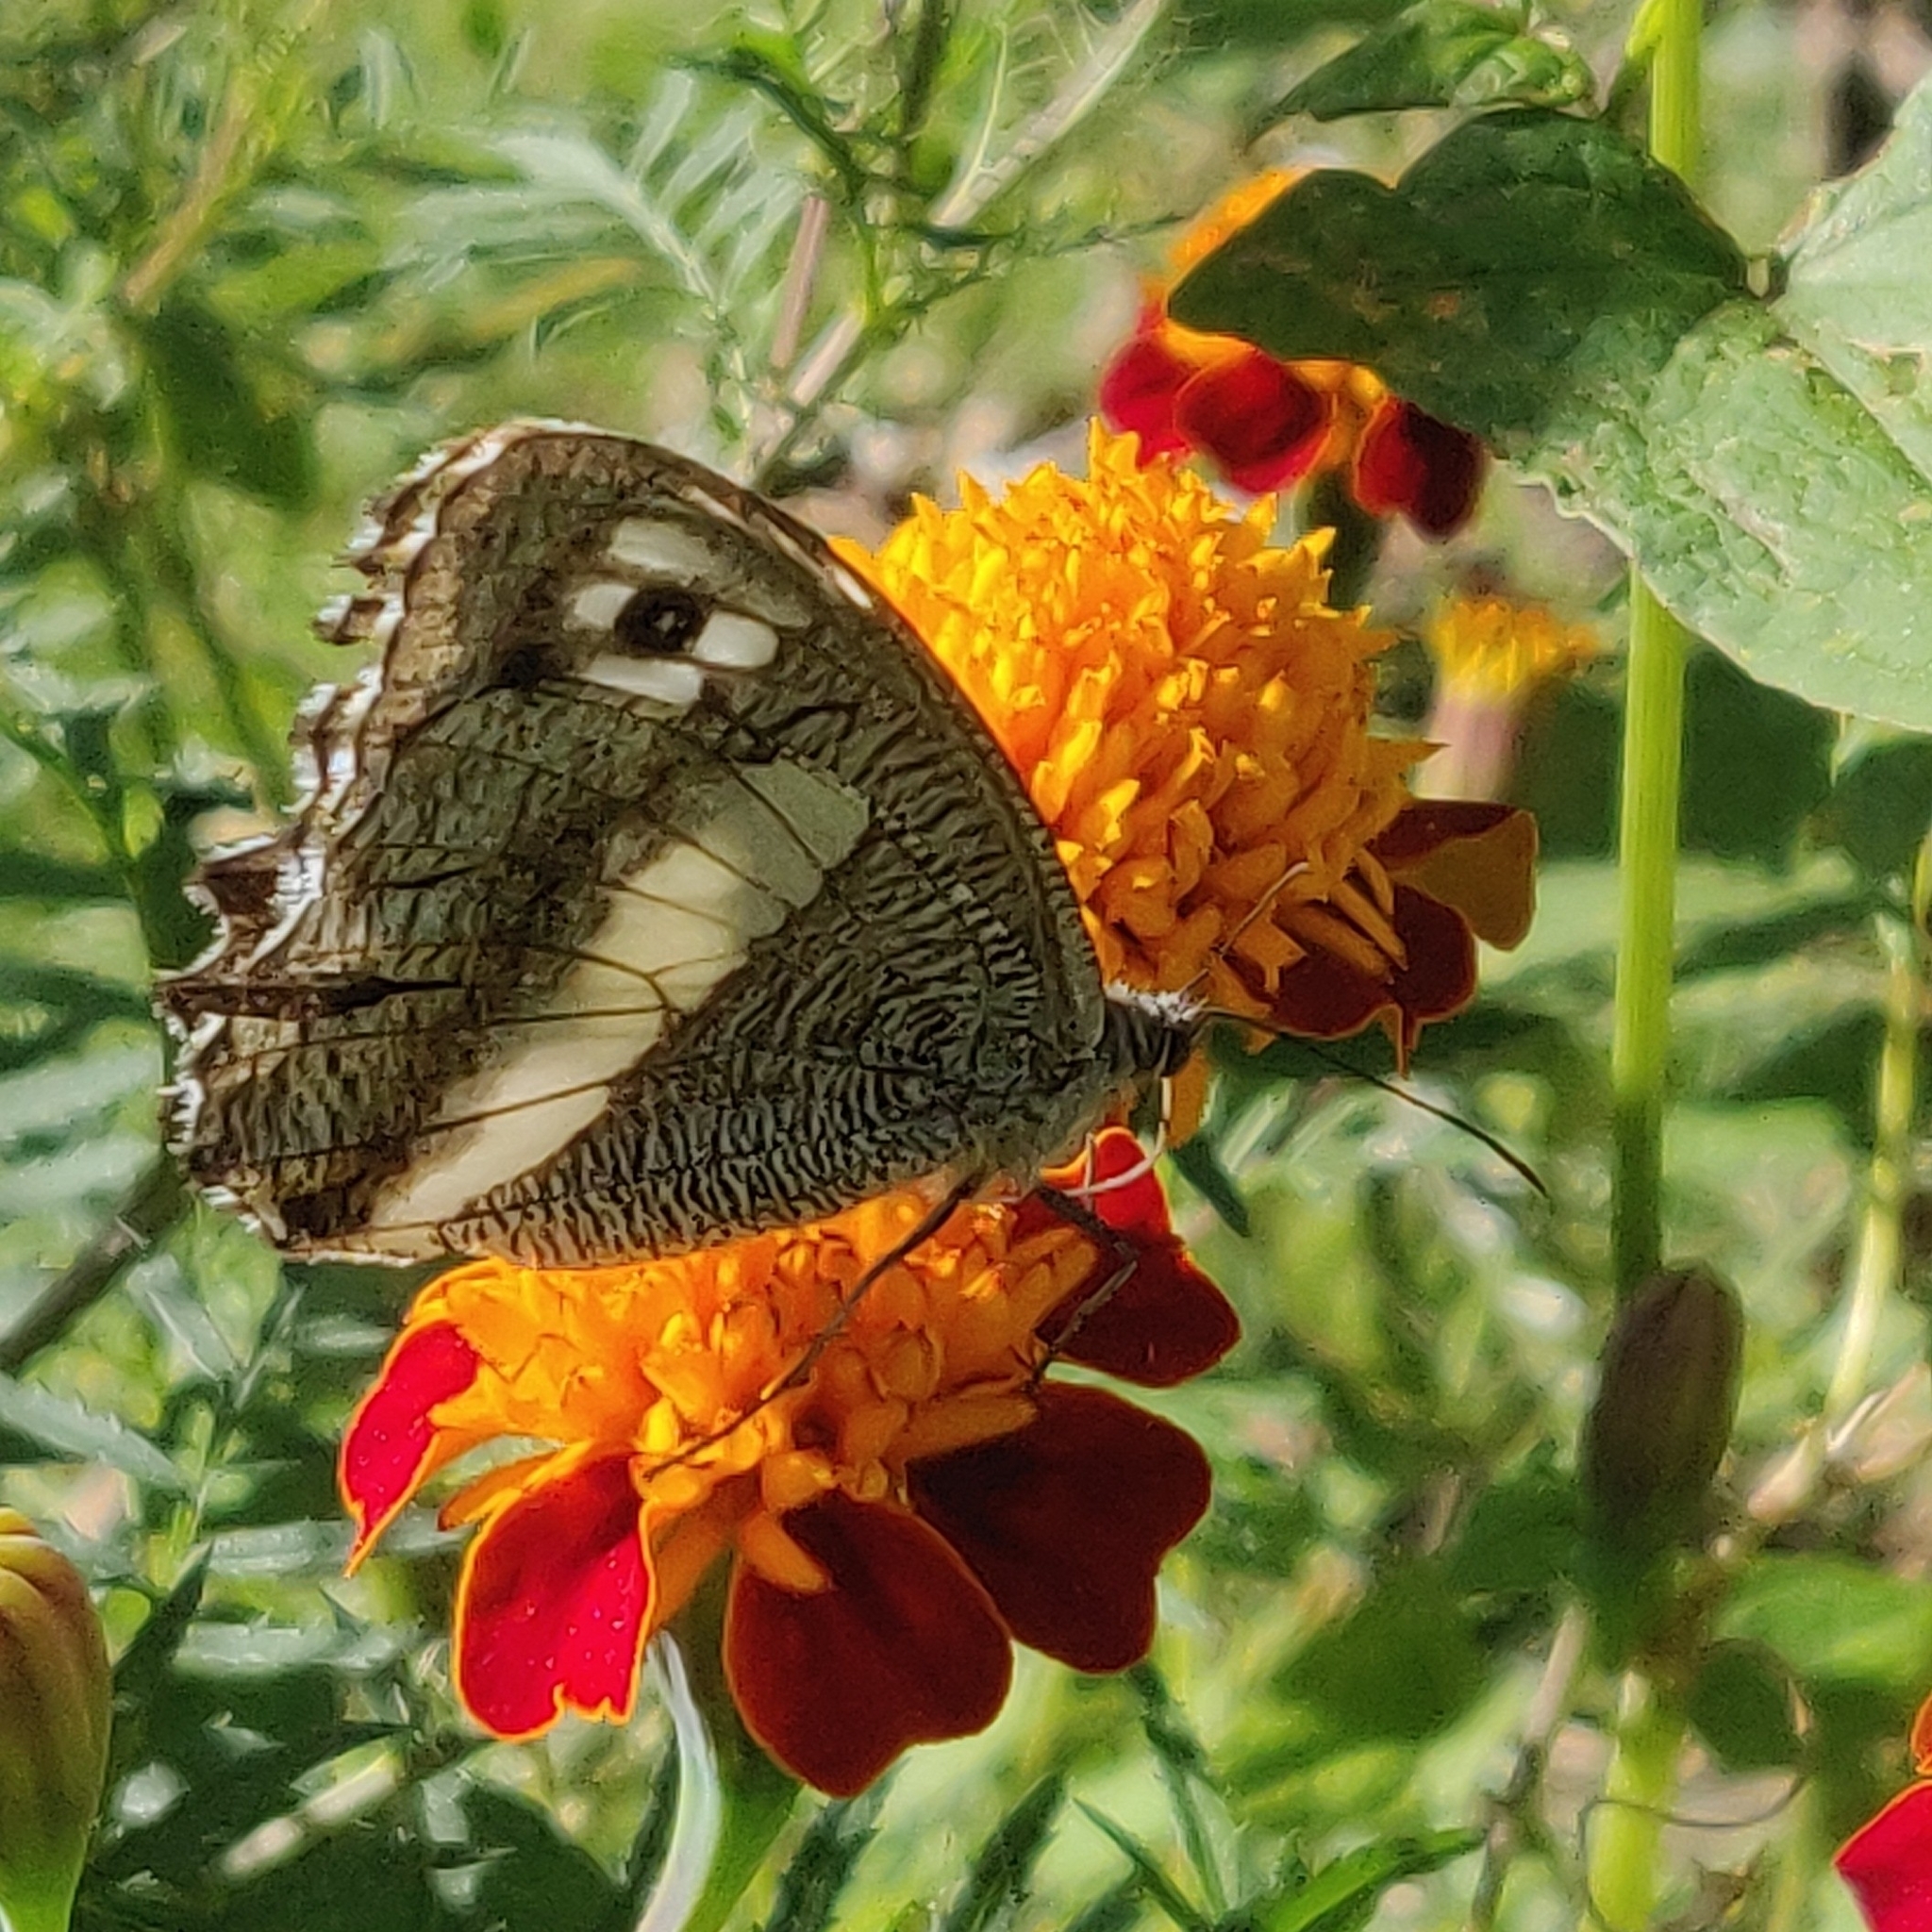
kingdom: Animalia
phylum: Arthropoda
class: Insecta
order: Lepidoptera
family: Nymphalidae
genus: Satyrus
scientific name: Satyrus
